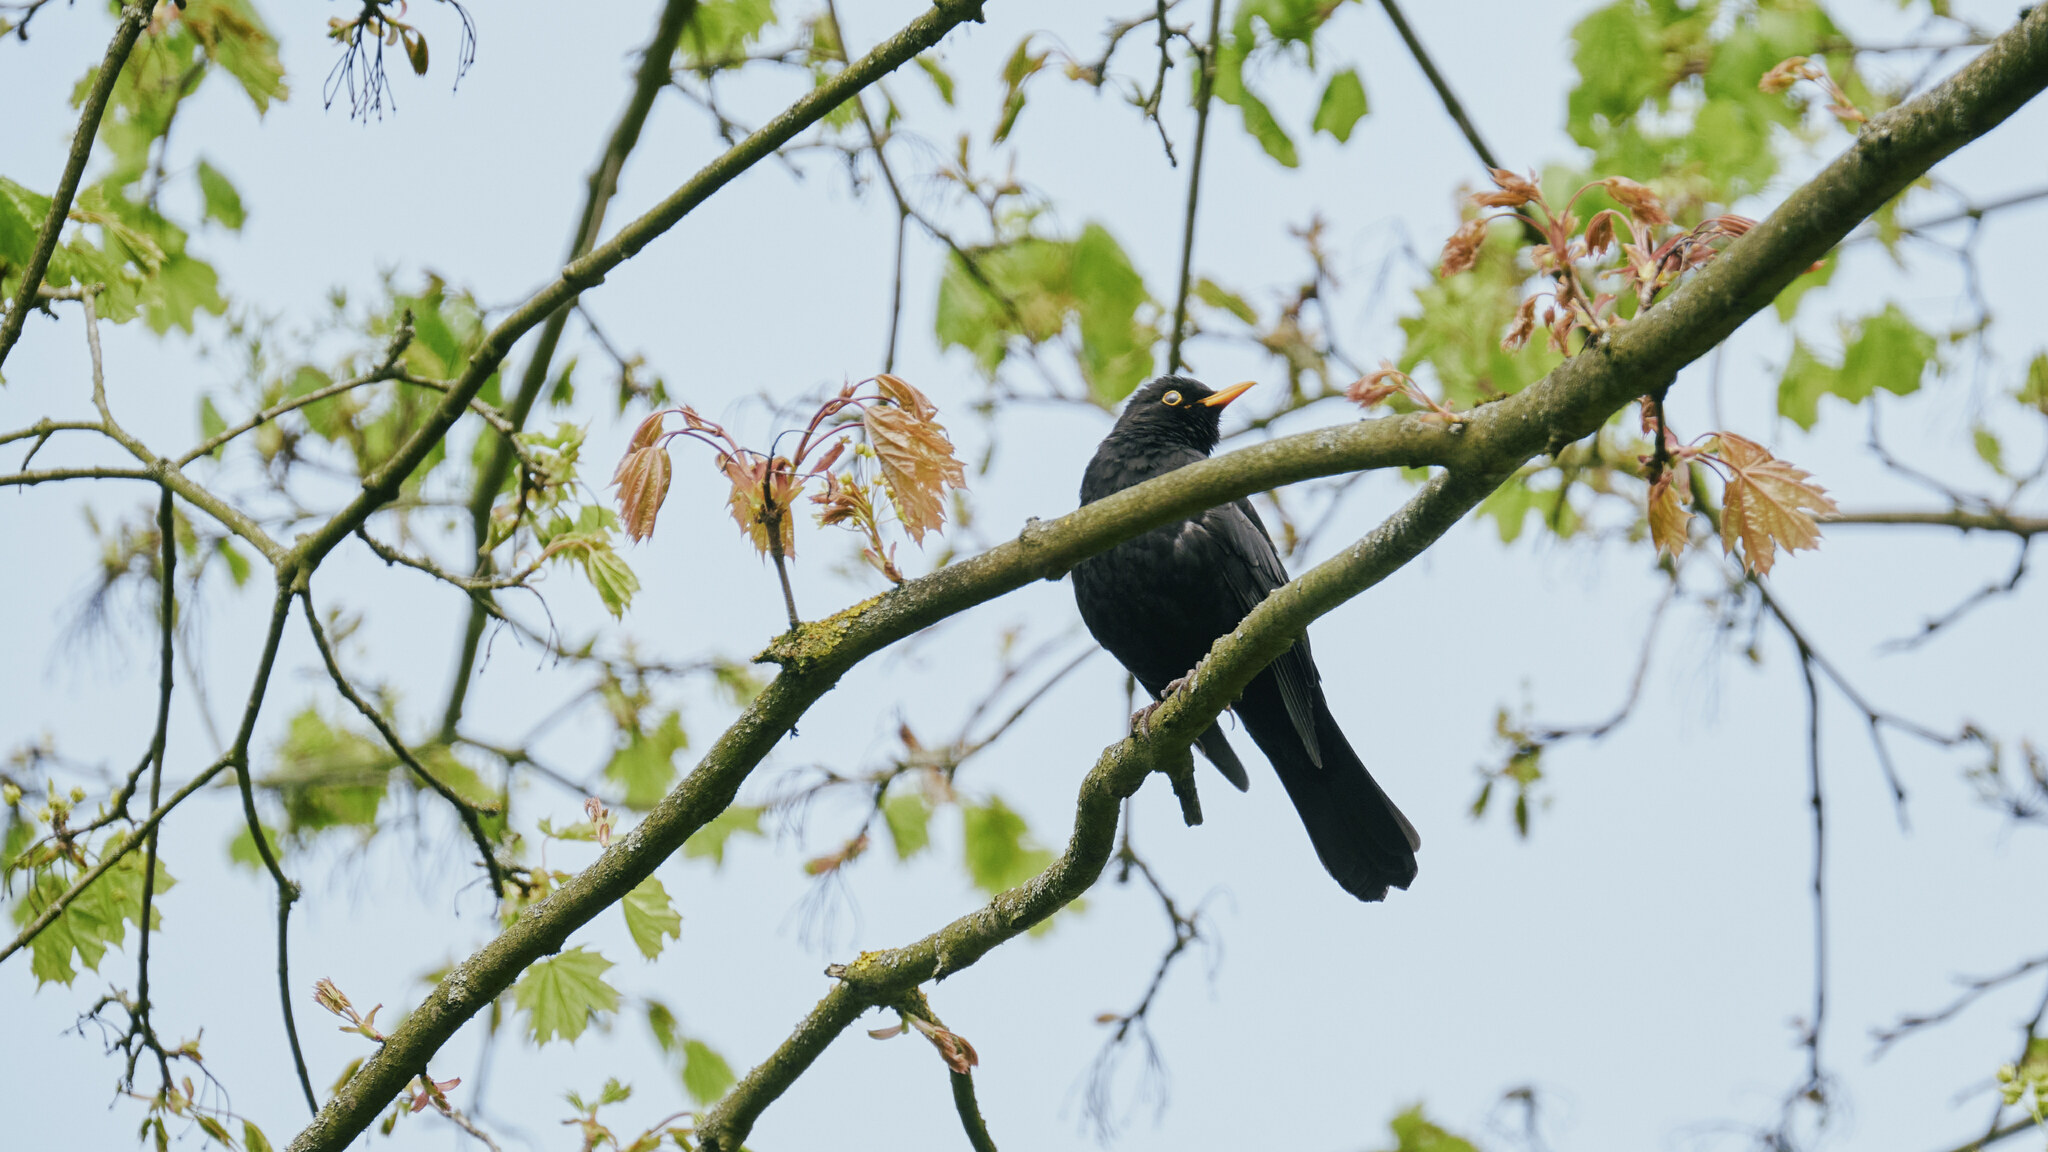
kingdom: Animalia
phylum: Chordata
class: Aves
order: Passeriformes
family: Turdidae
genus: Turdus
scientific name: Turdus merula
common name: Common blackbird
